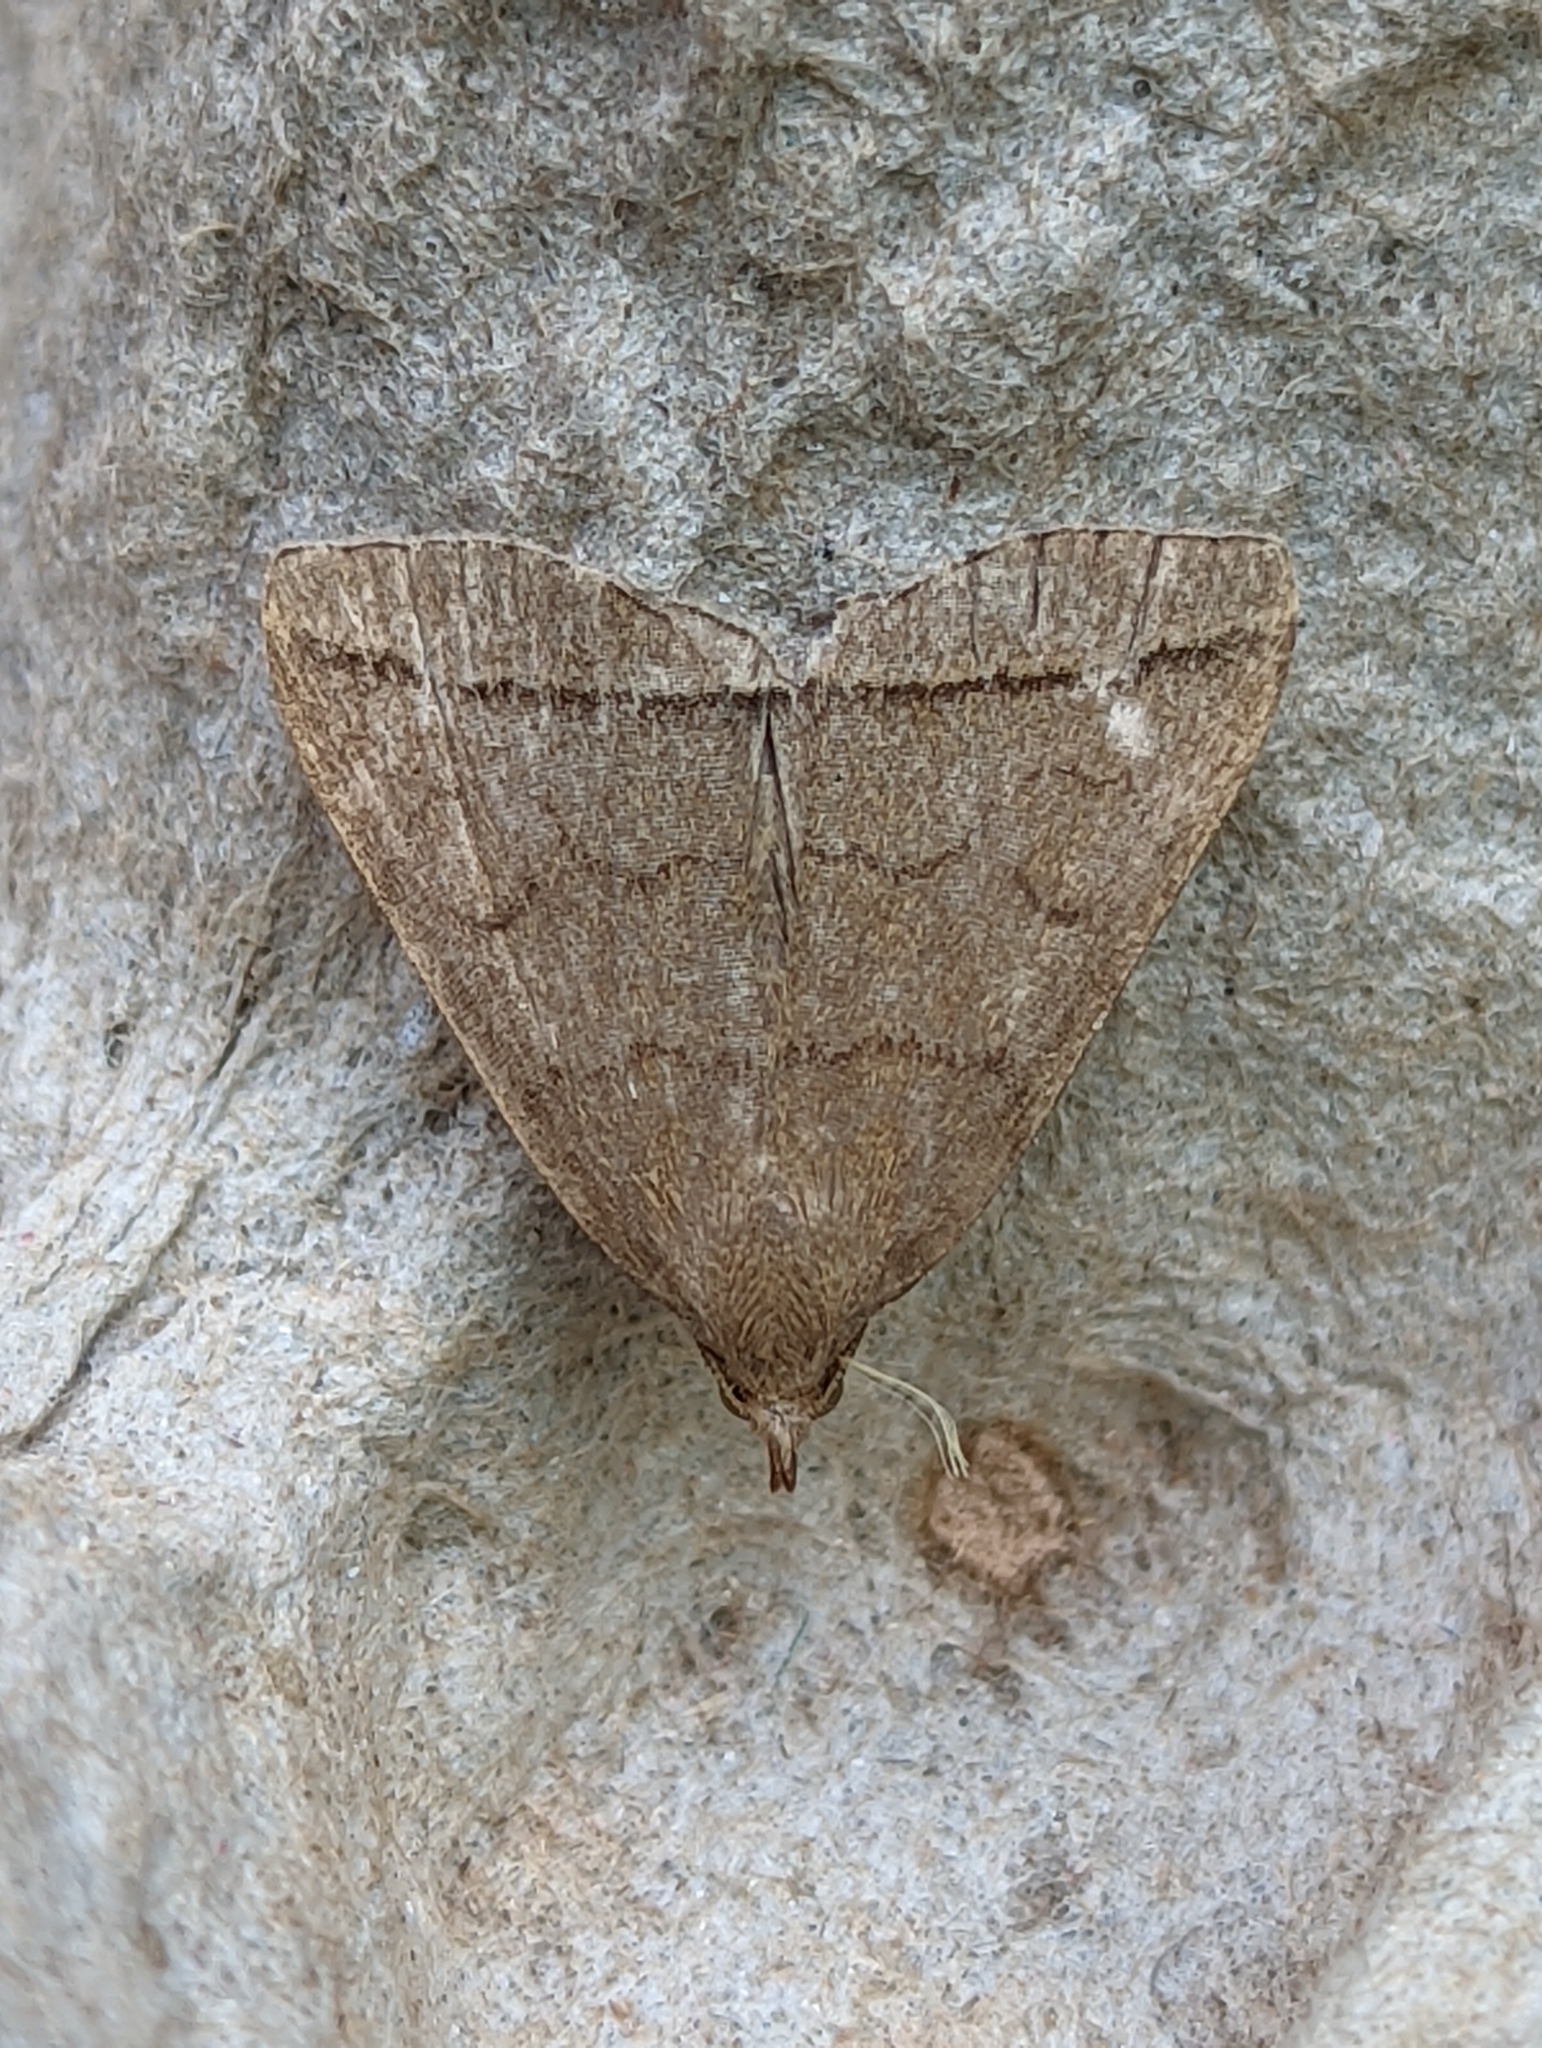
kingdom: Animalia
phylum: Arthropoda
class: Insecta
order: Lepidoptera
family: Erebidae
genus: Herminia
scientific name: Herminia tarsipennalis
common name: Fan-foot
